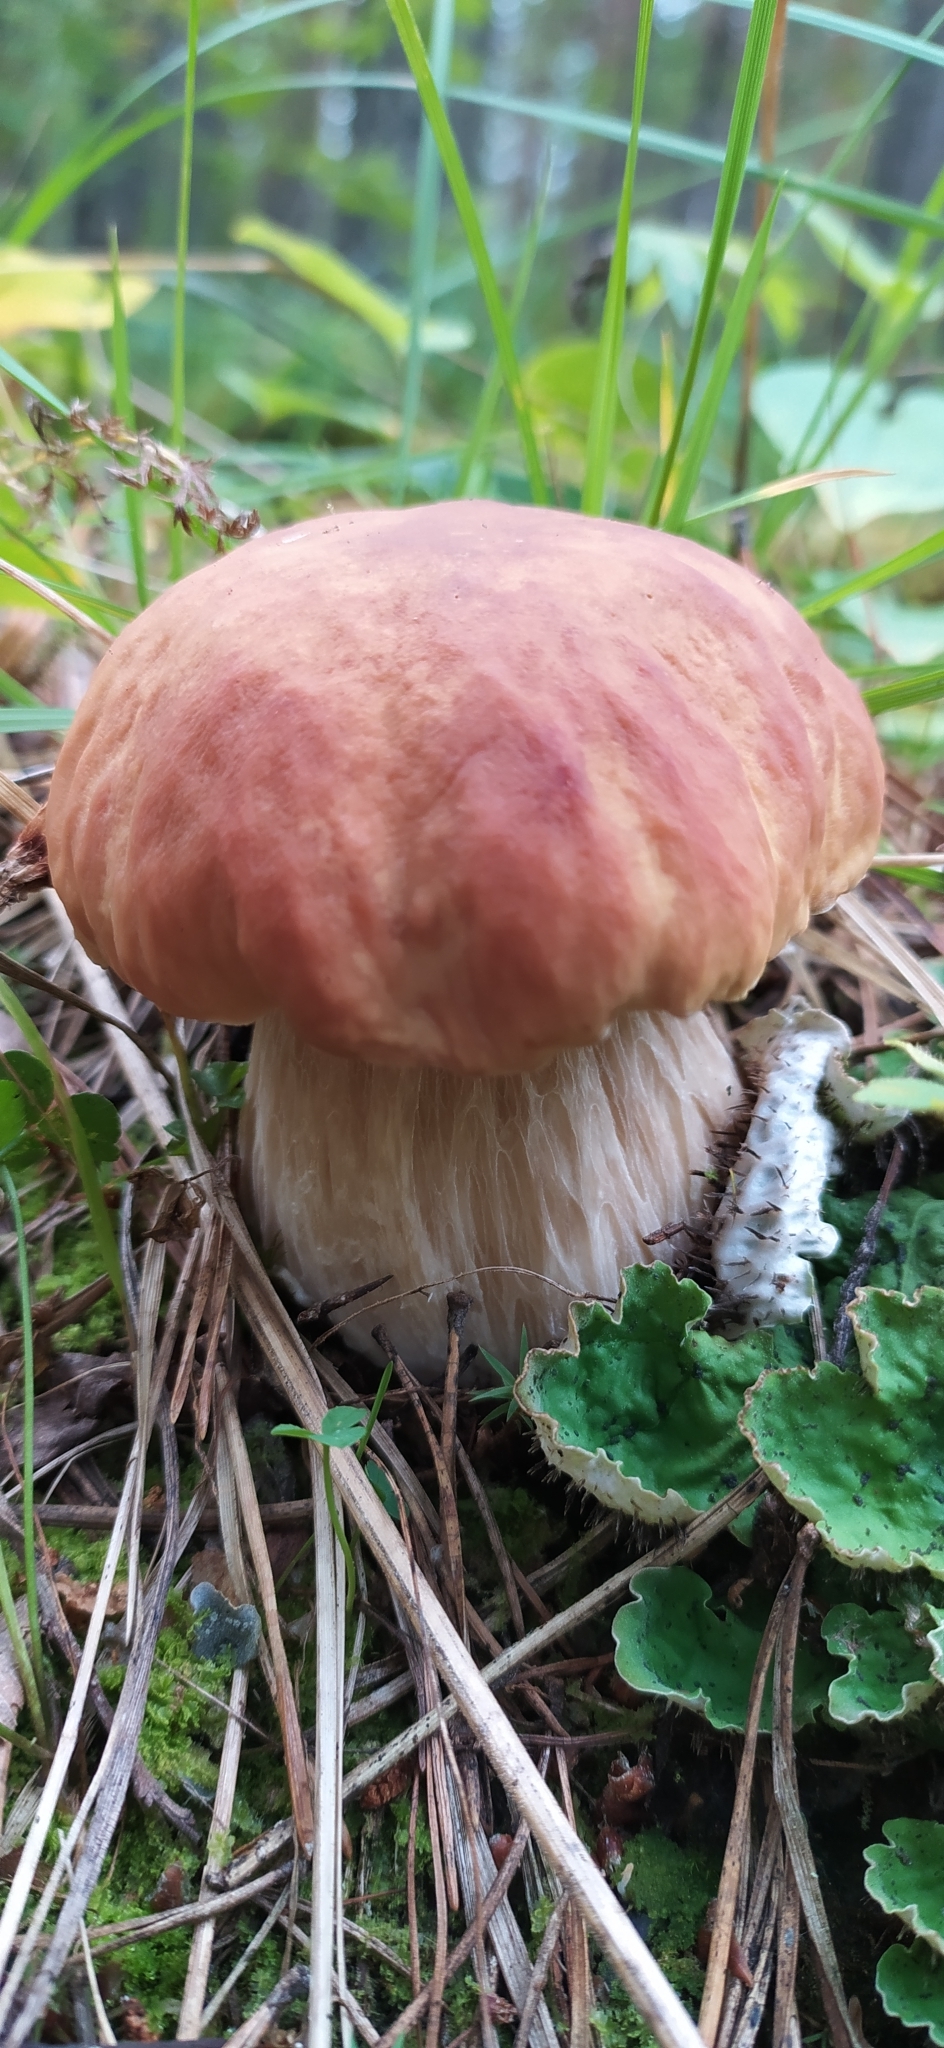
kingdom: Fungi
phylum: Basidiomycota
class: Agaricomycetes
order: Boletales
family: Boletaceae
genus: Boletus
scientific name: Boletus edulis
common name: Cep
